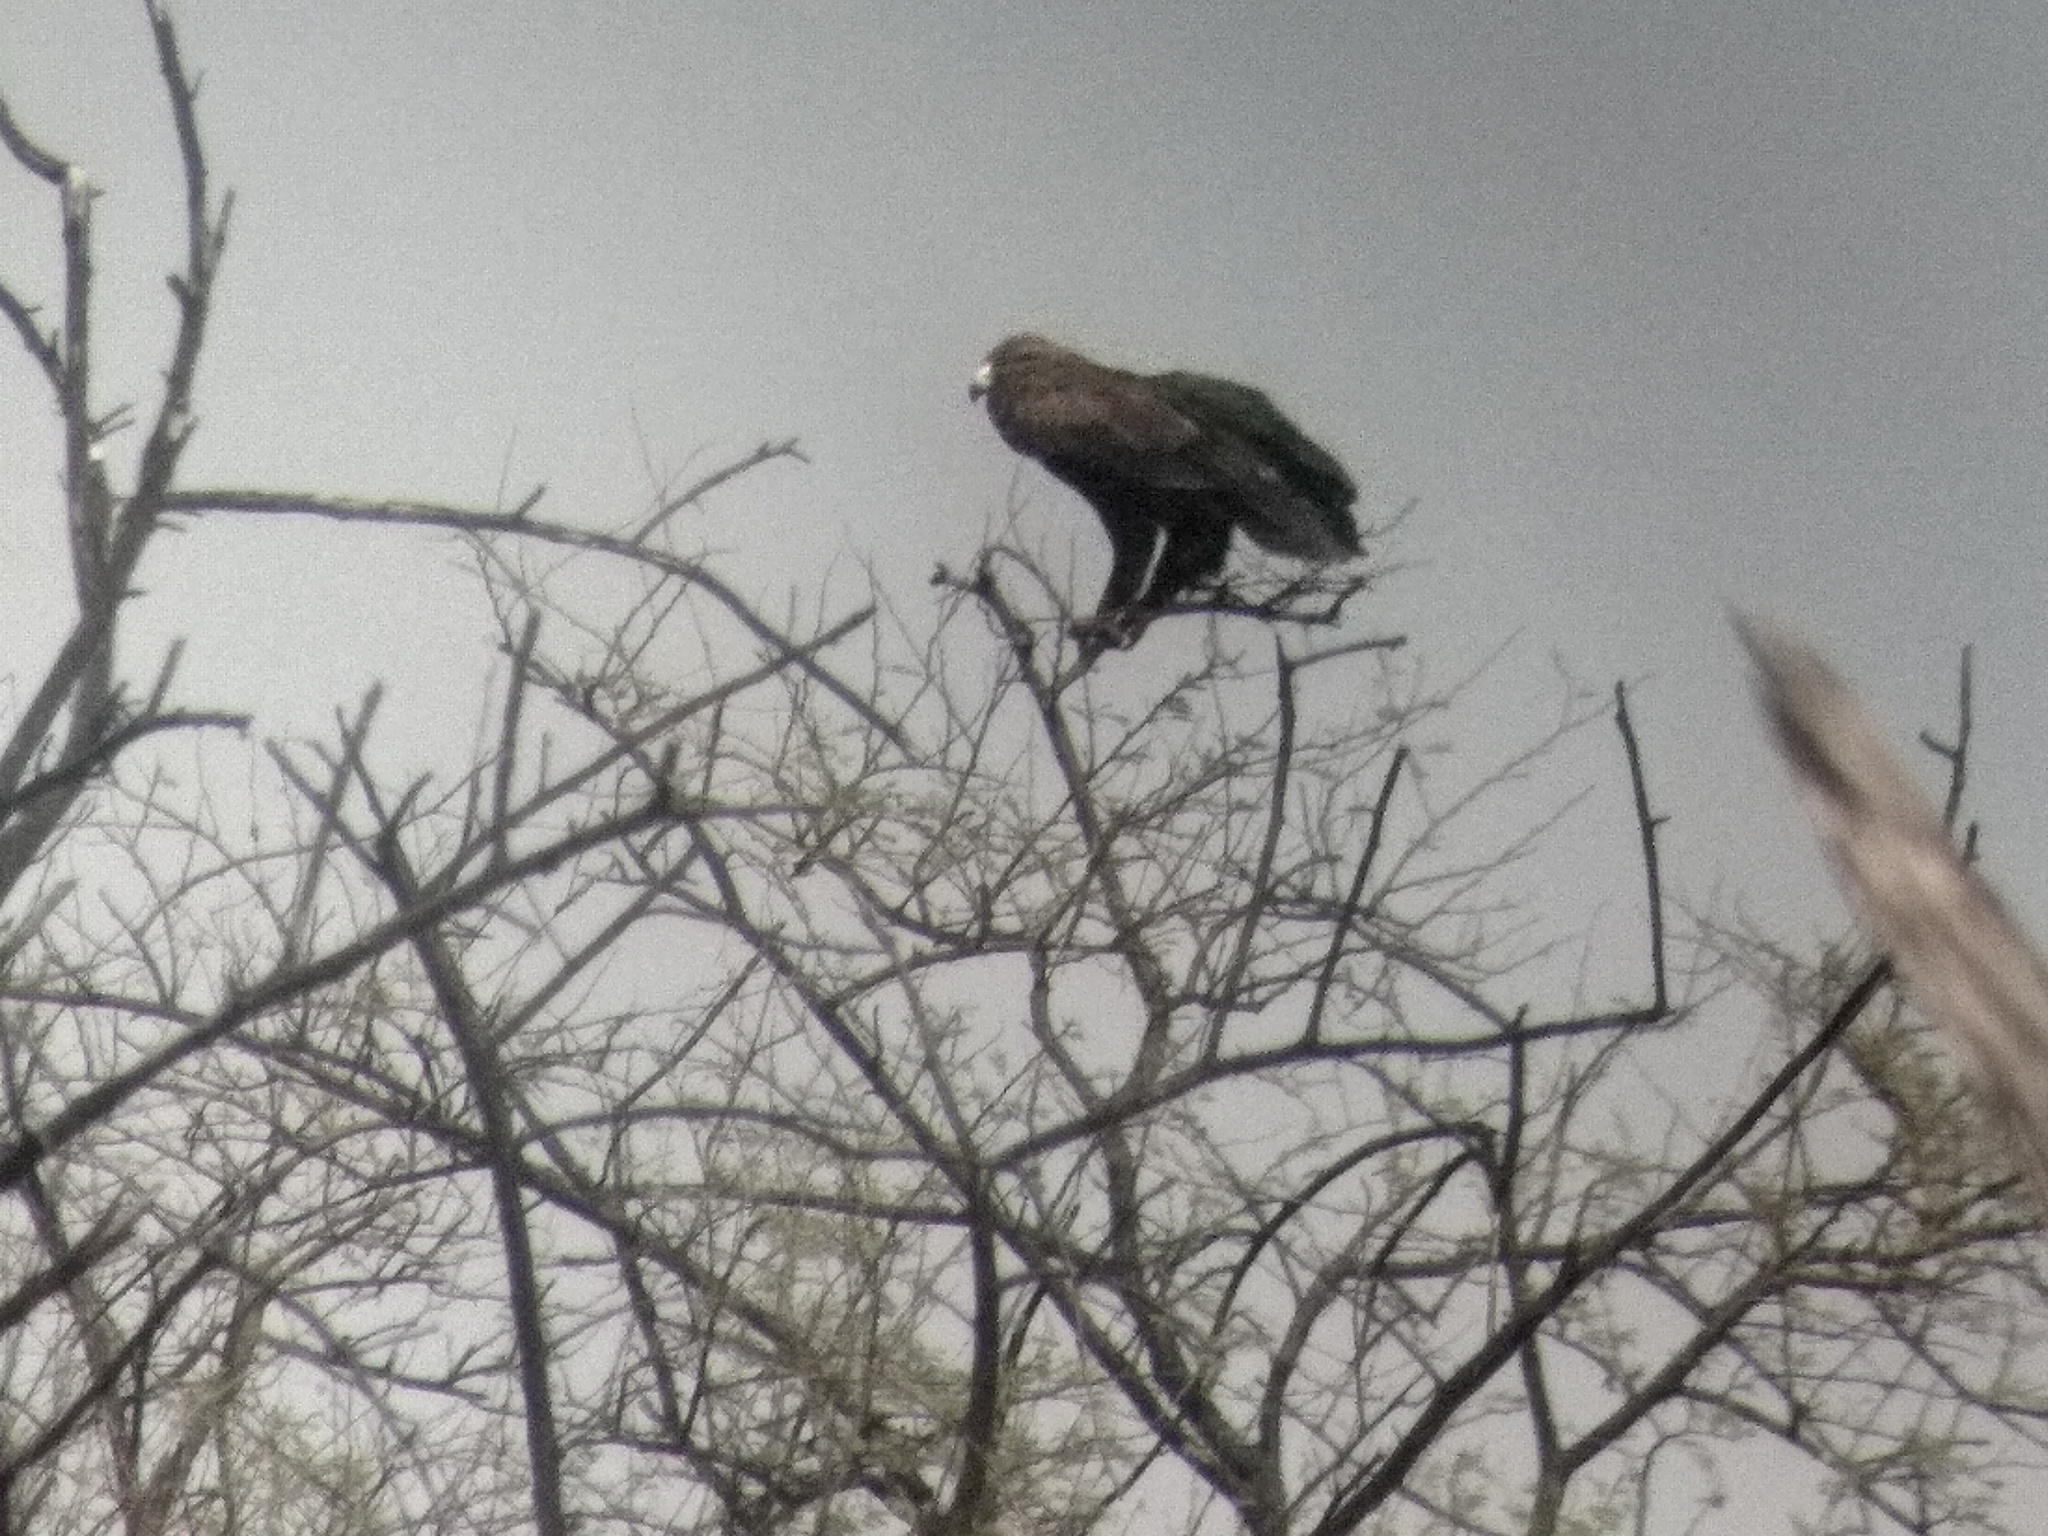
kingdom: Animalia
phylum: Chordata
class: Aves
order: Accipitriformes
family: Accipitridae
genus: Aquila
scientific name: Aquila clanga
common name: Greater spotted eagle
